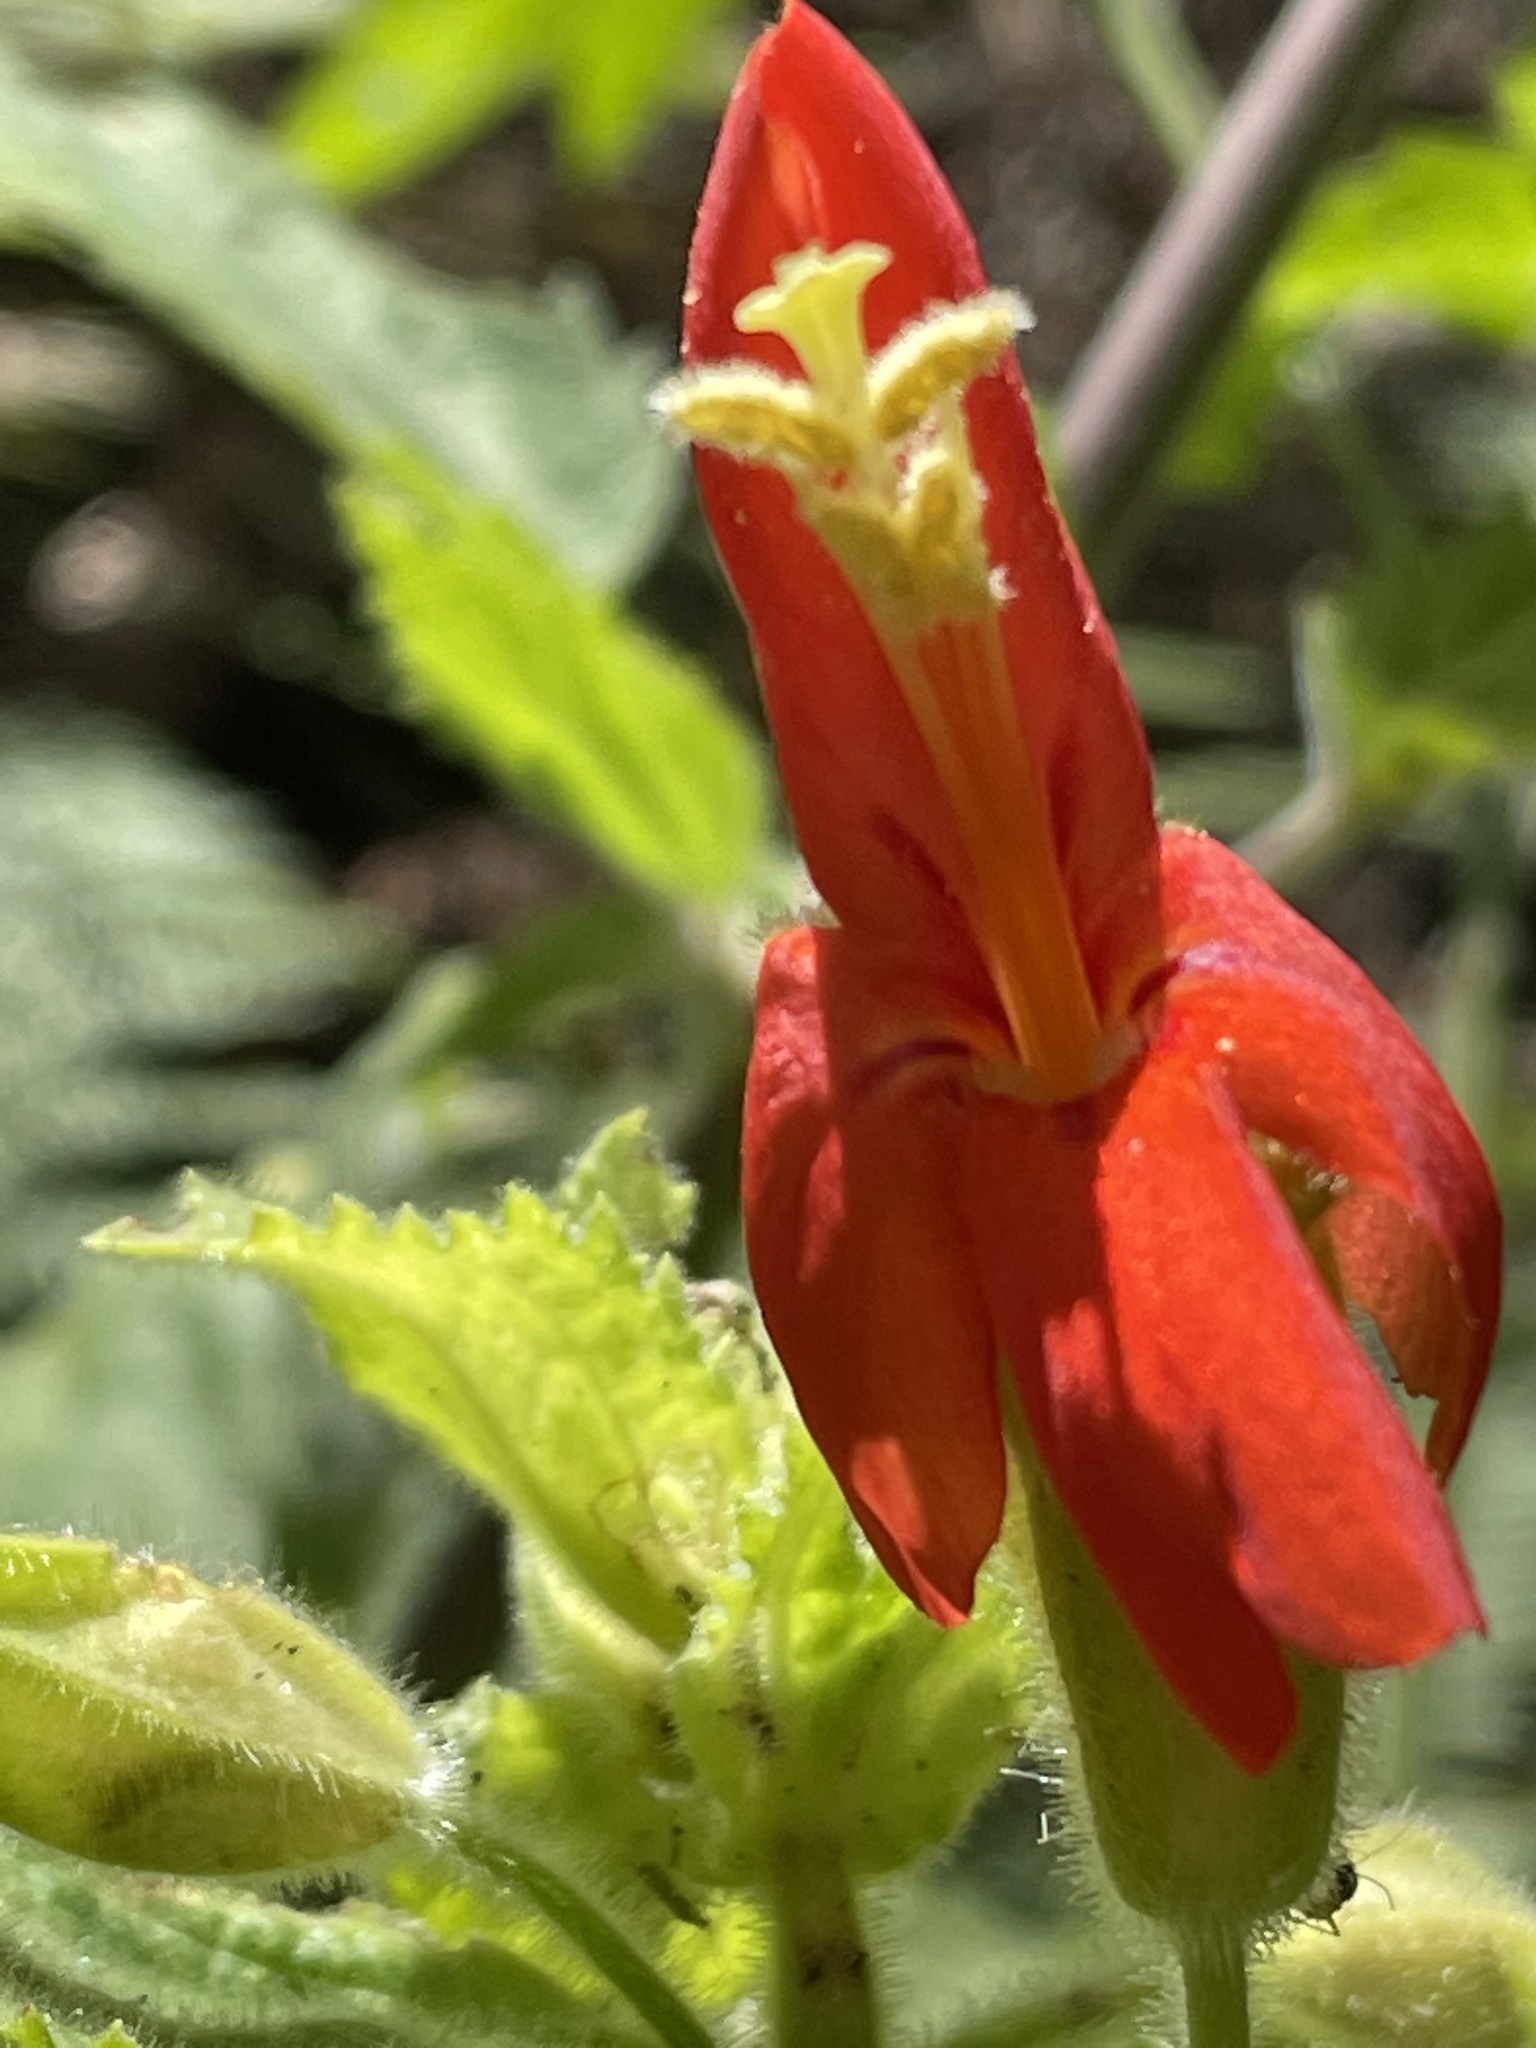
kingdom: Plantae
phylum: Tracheophyta
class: Magnoliopsida
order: Lamiales
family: Phrymaceae
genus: Erythranthe
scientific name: Erythranthe cardinalis
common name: Scarlet monkey-flower
